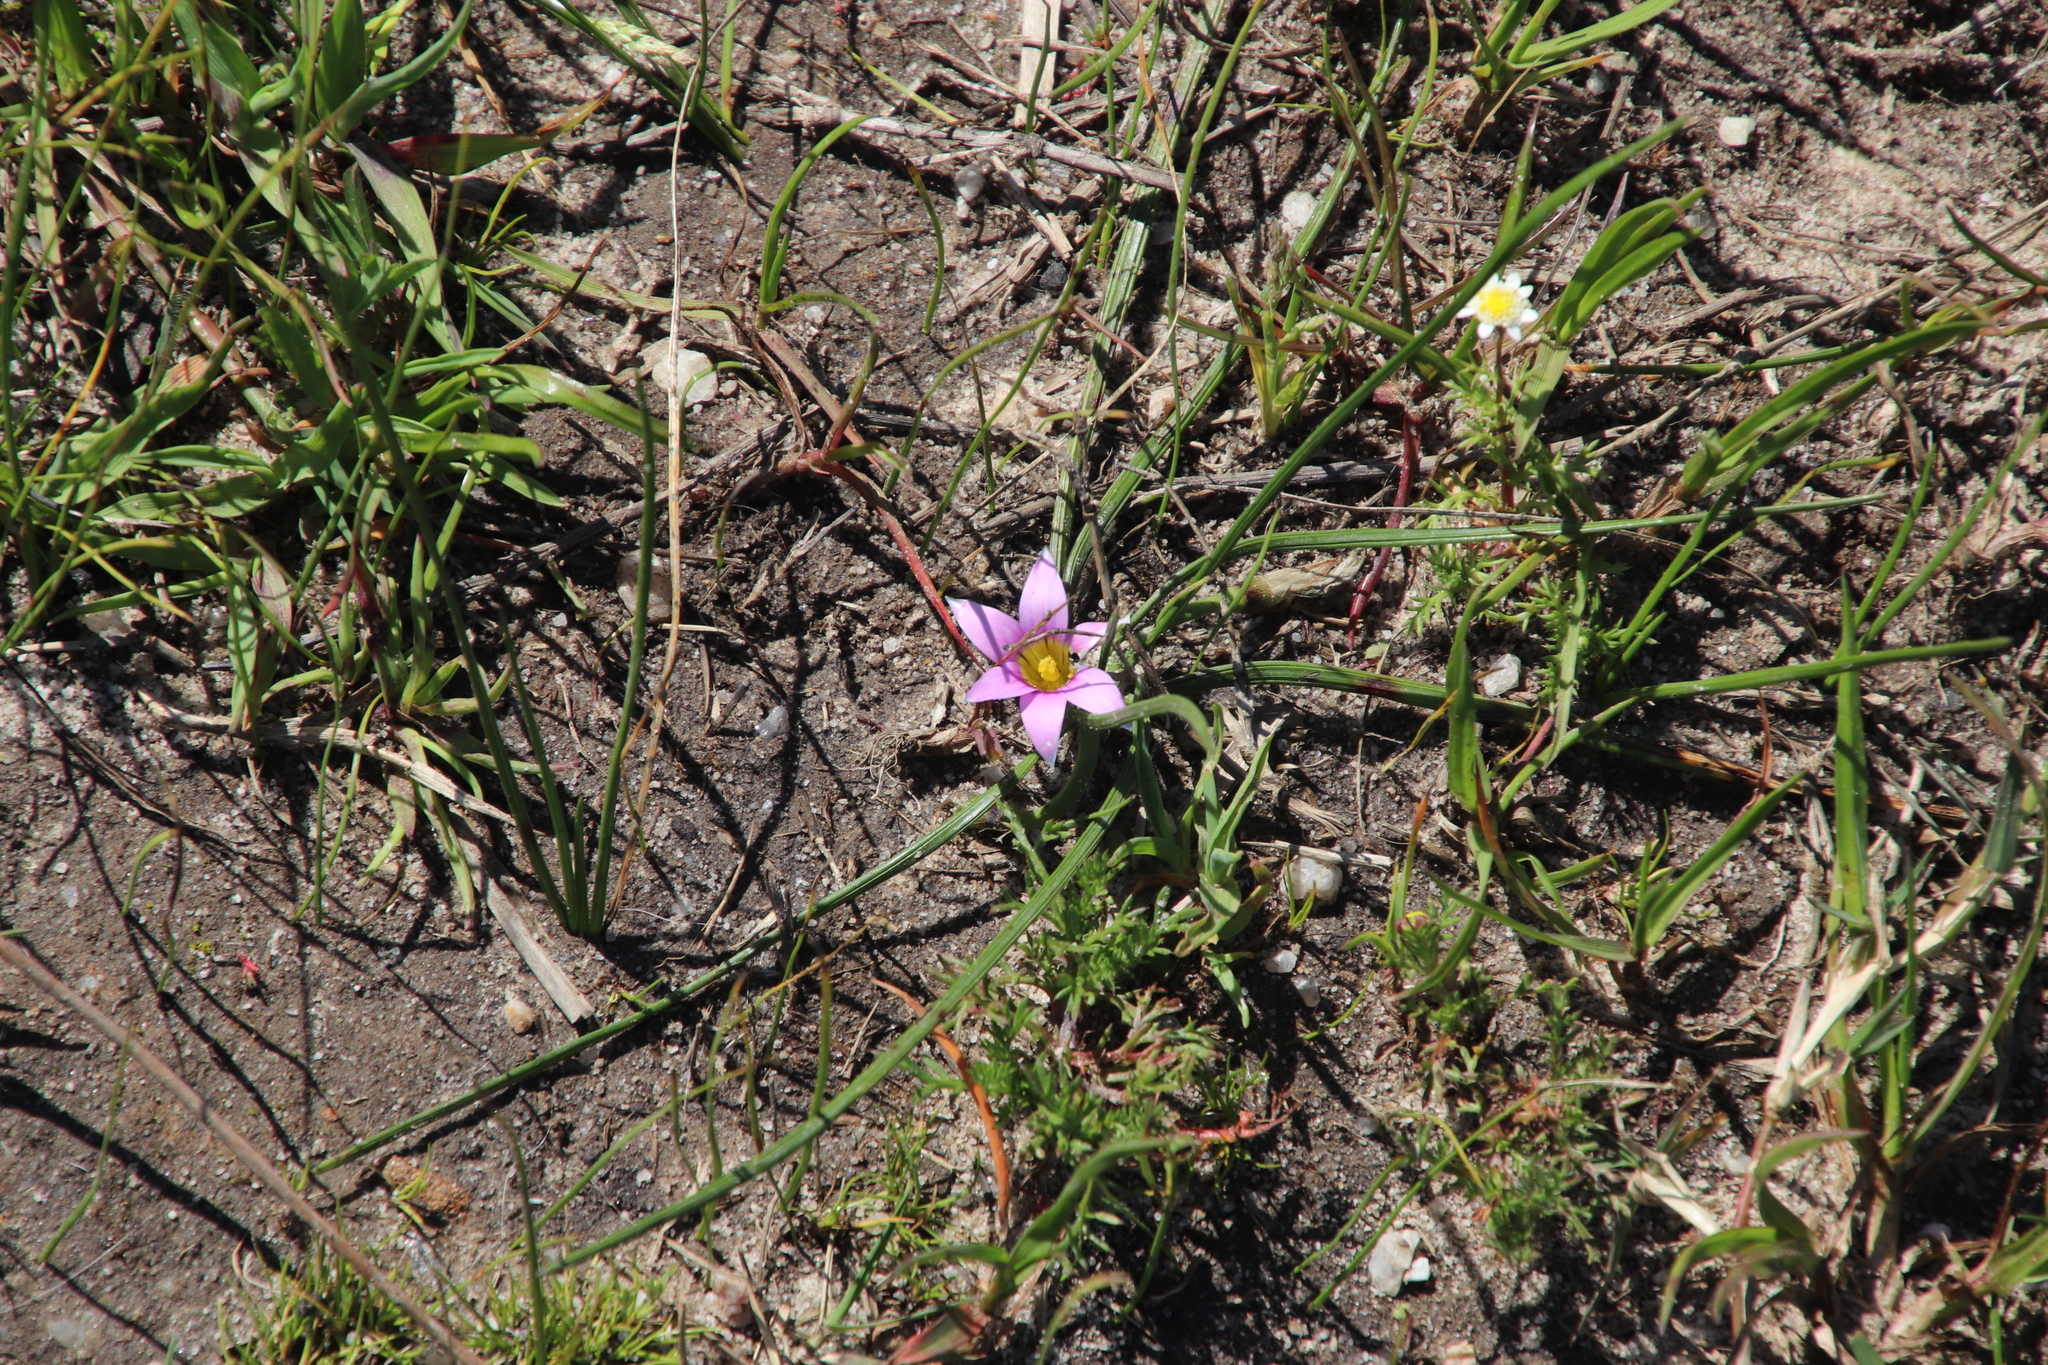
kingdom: Plantae
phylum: Tracheophyta
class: Liliopsida
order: Asparagales
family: Iridaceae
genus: Romulea
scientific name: Romulea rosea
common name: Oniongrass
